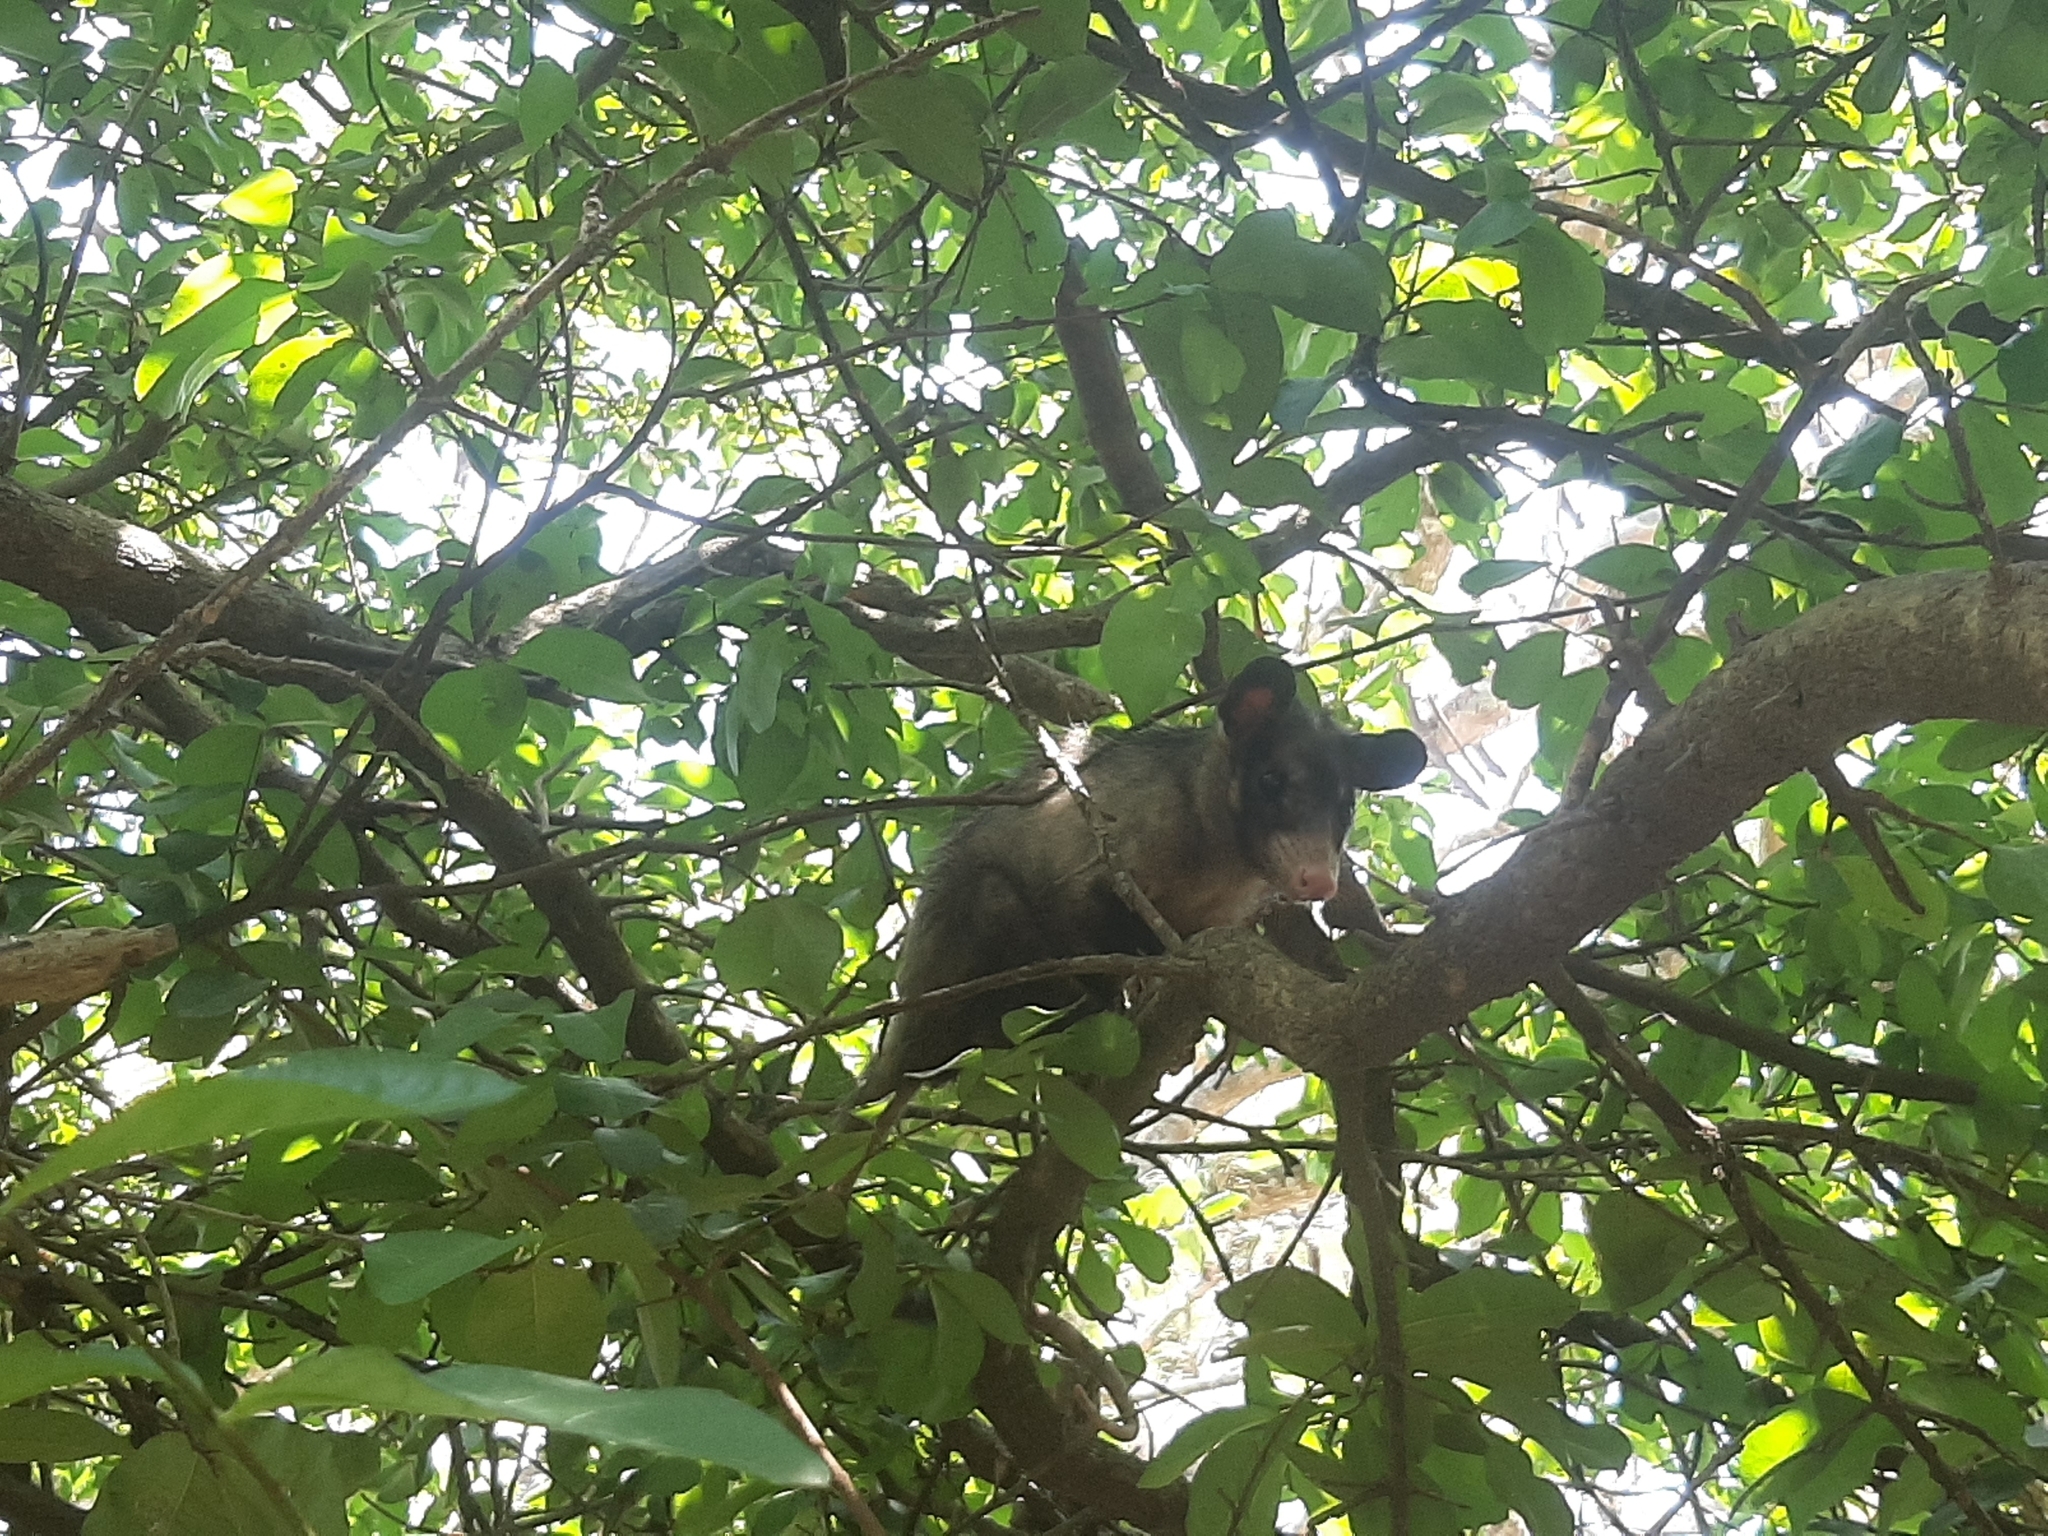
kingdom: Animalia
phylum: Chordata
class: Mammalia
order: Didelphimorphia
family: Didelphidae
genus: Didelphis
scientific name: Didelphis aurita
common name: Big-eared opossum
